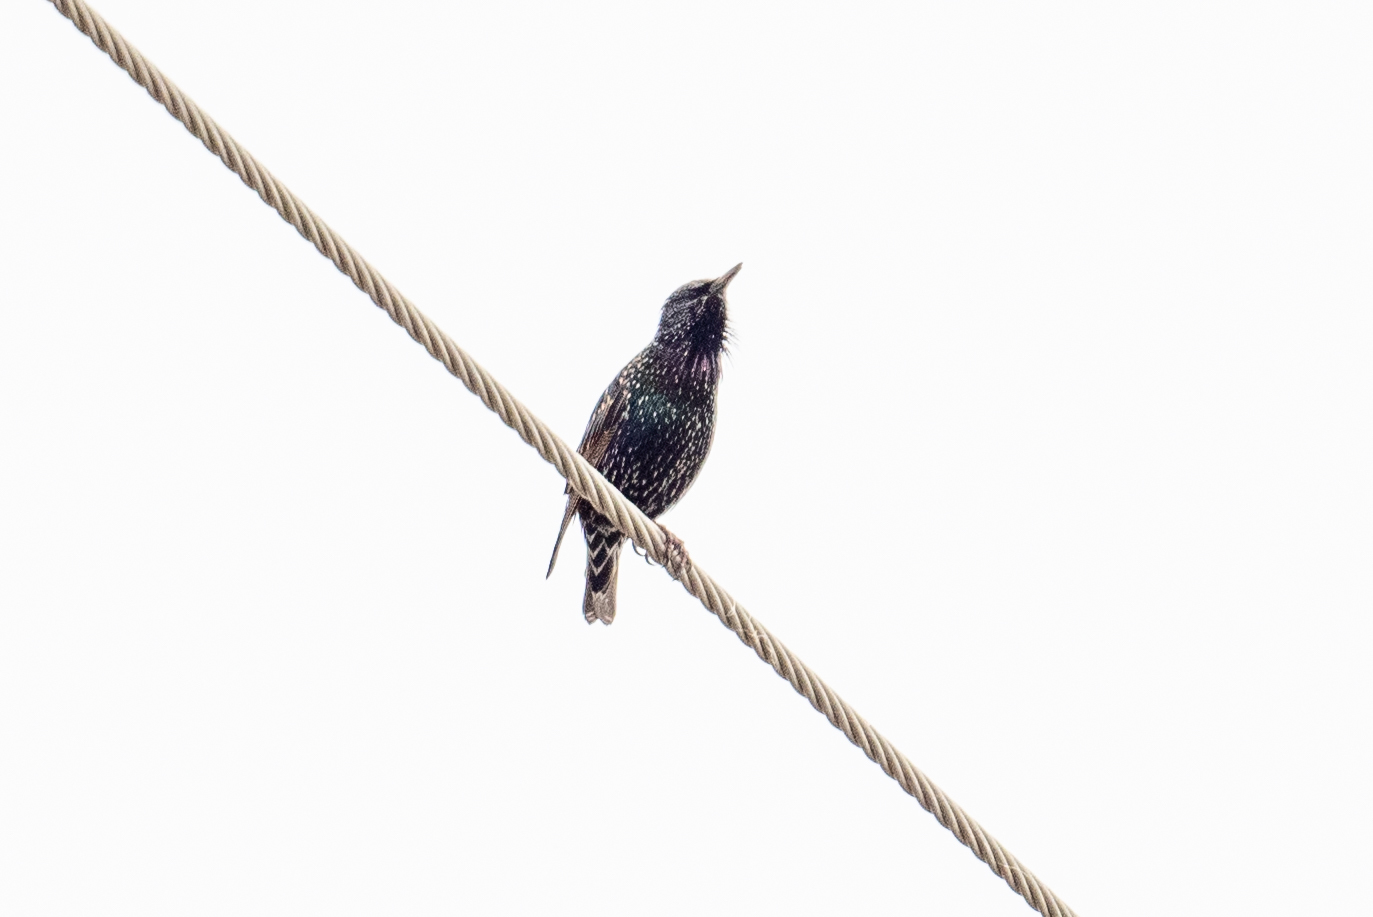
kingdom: Animalia
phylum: Chordata
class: Aves
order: Passeriformes
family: Sturnidae
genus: Sturnus
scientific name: Sturnus vulgaris
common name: Common starling
